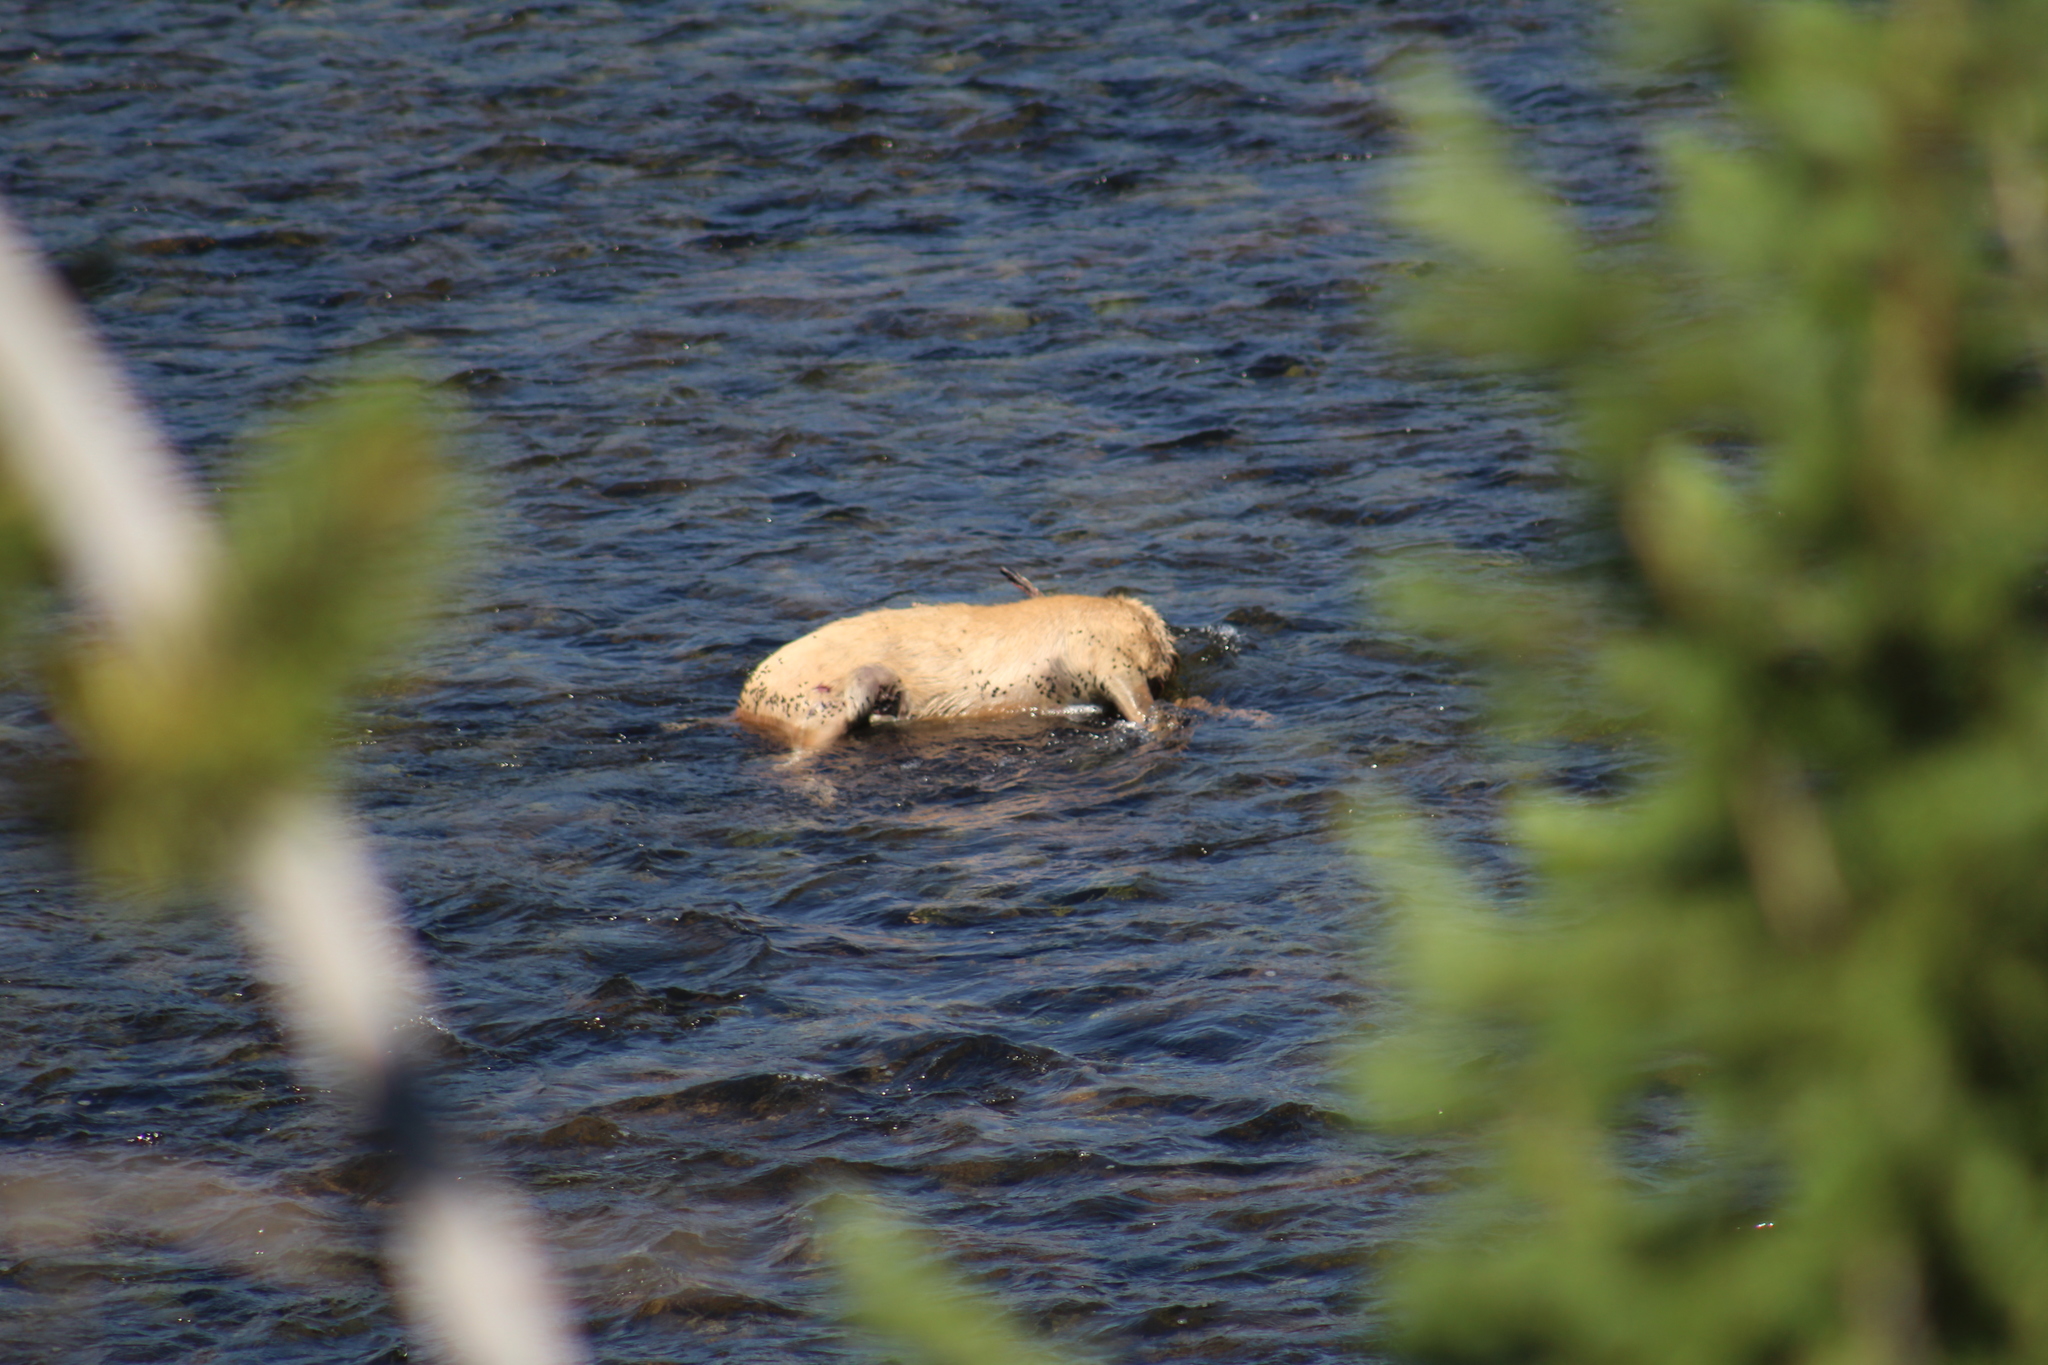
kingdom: Animalia
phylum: Chordata
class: Mammalia
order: Artiodactyla
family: Cervidae
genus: Cervus
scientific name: Cervus elaphus
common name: Red deer
